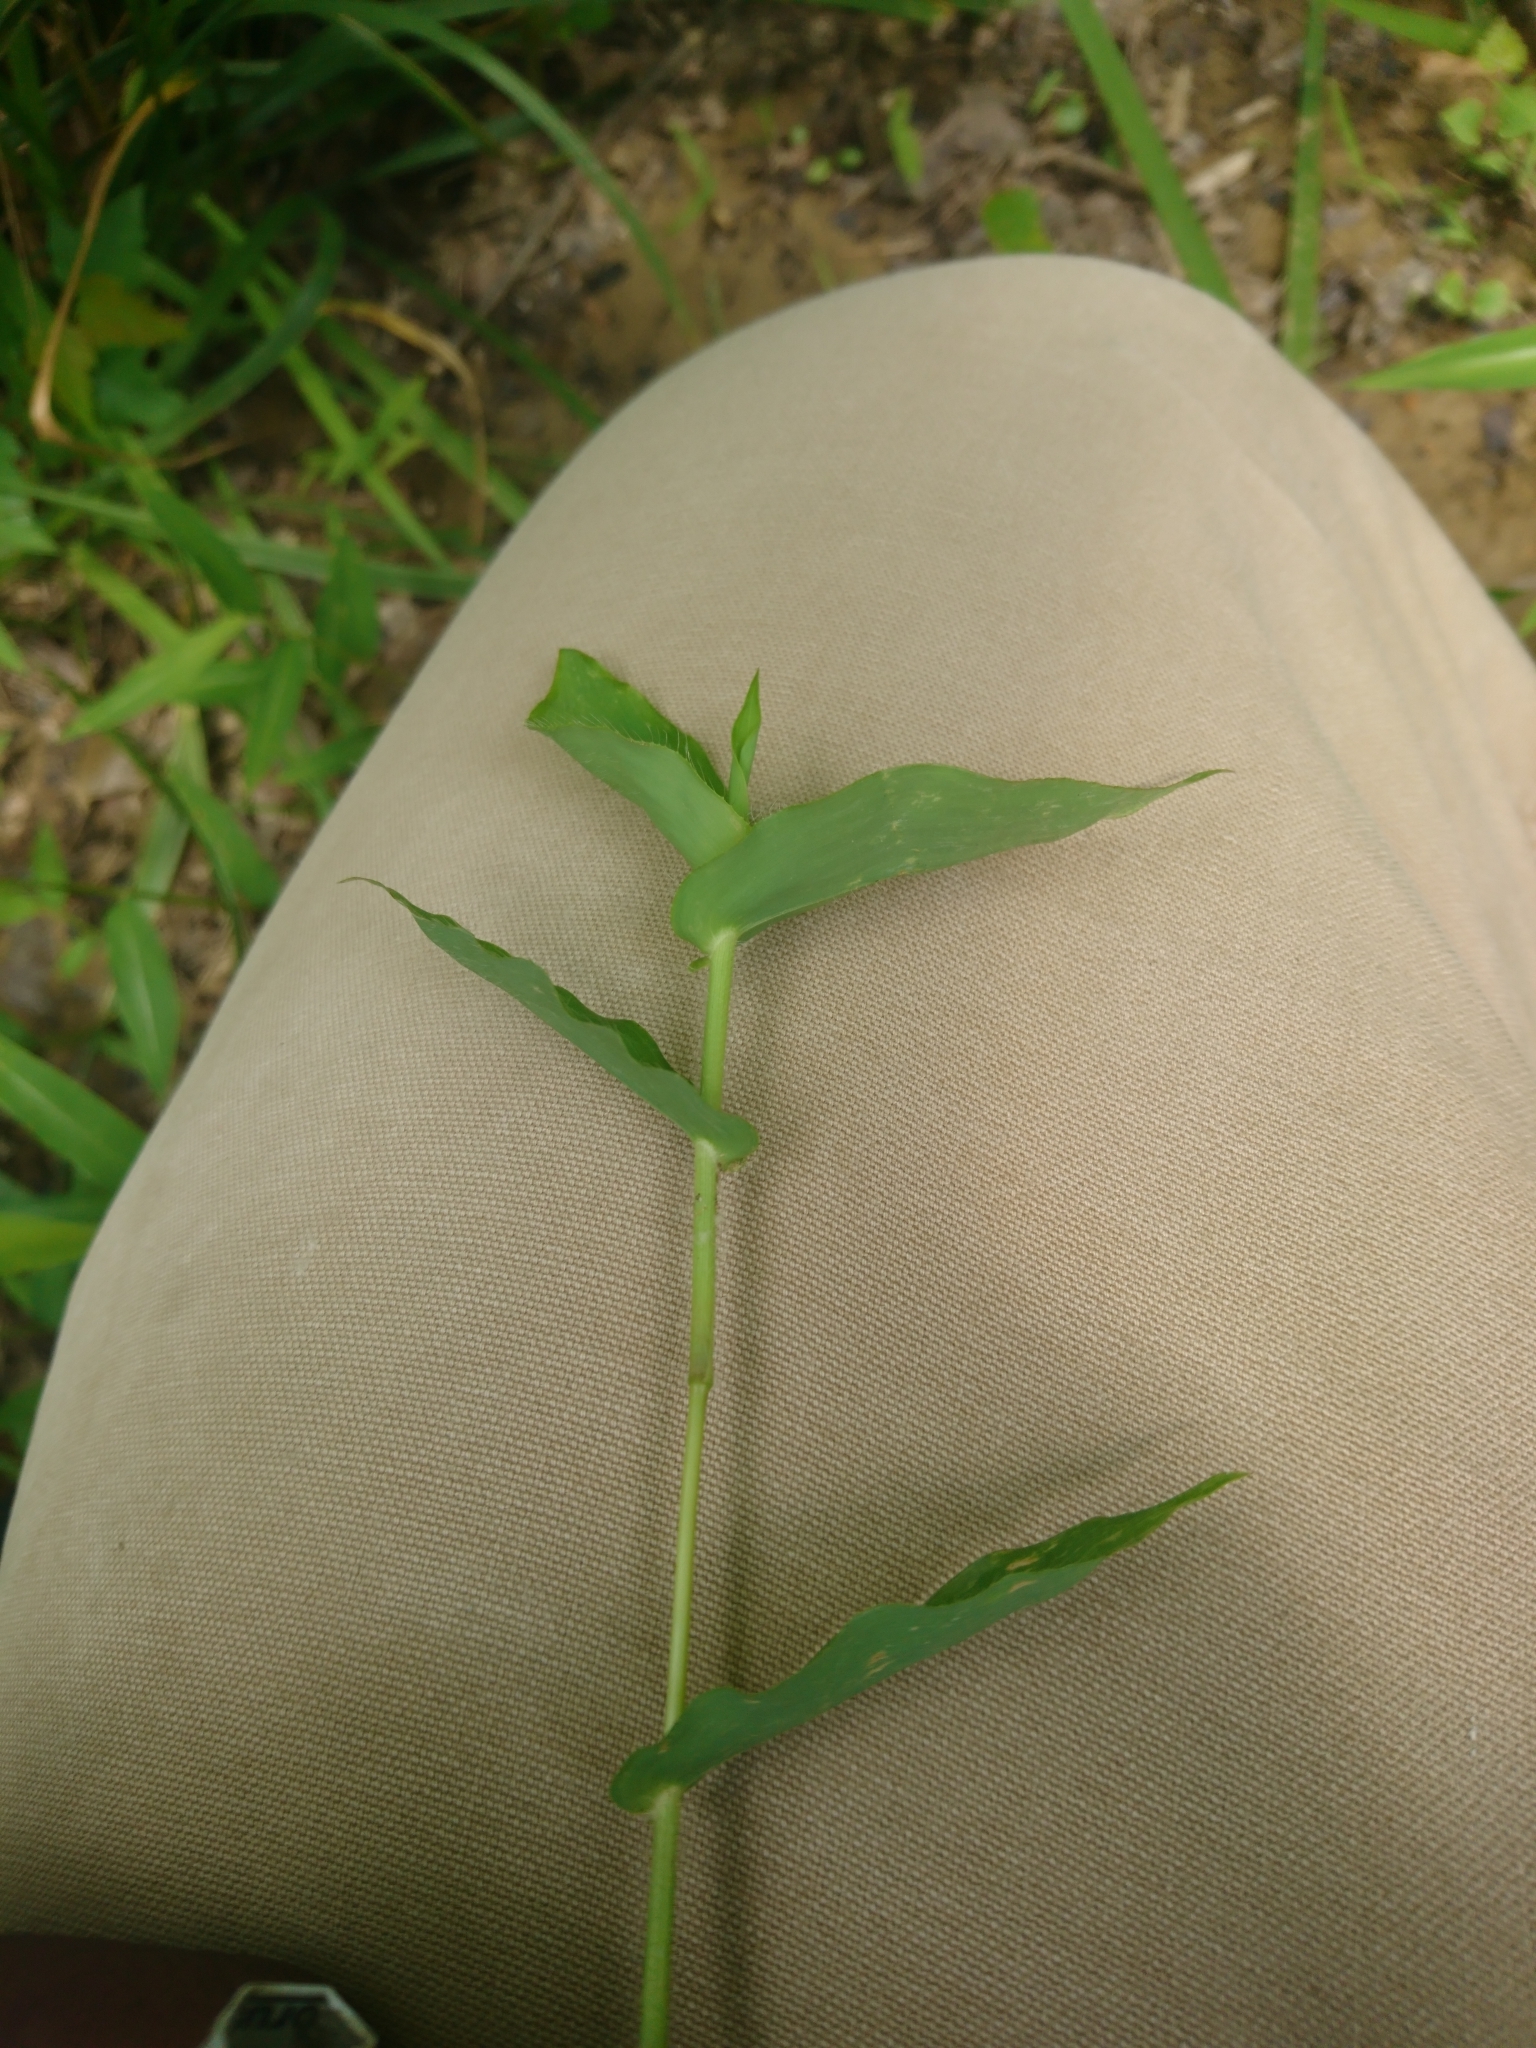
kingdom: Plantae
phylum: Tracheophyta
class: Liliopsida
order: Poales
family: Poaceae
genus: Arthraxon
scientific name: Arthraxon hispidus
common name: Small carpgrass
